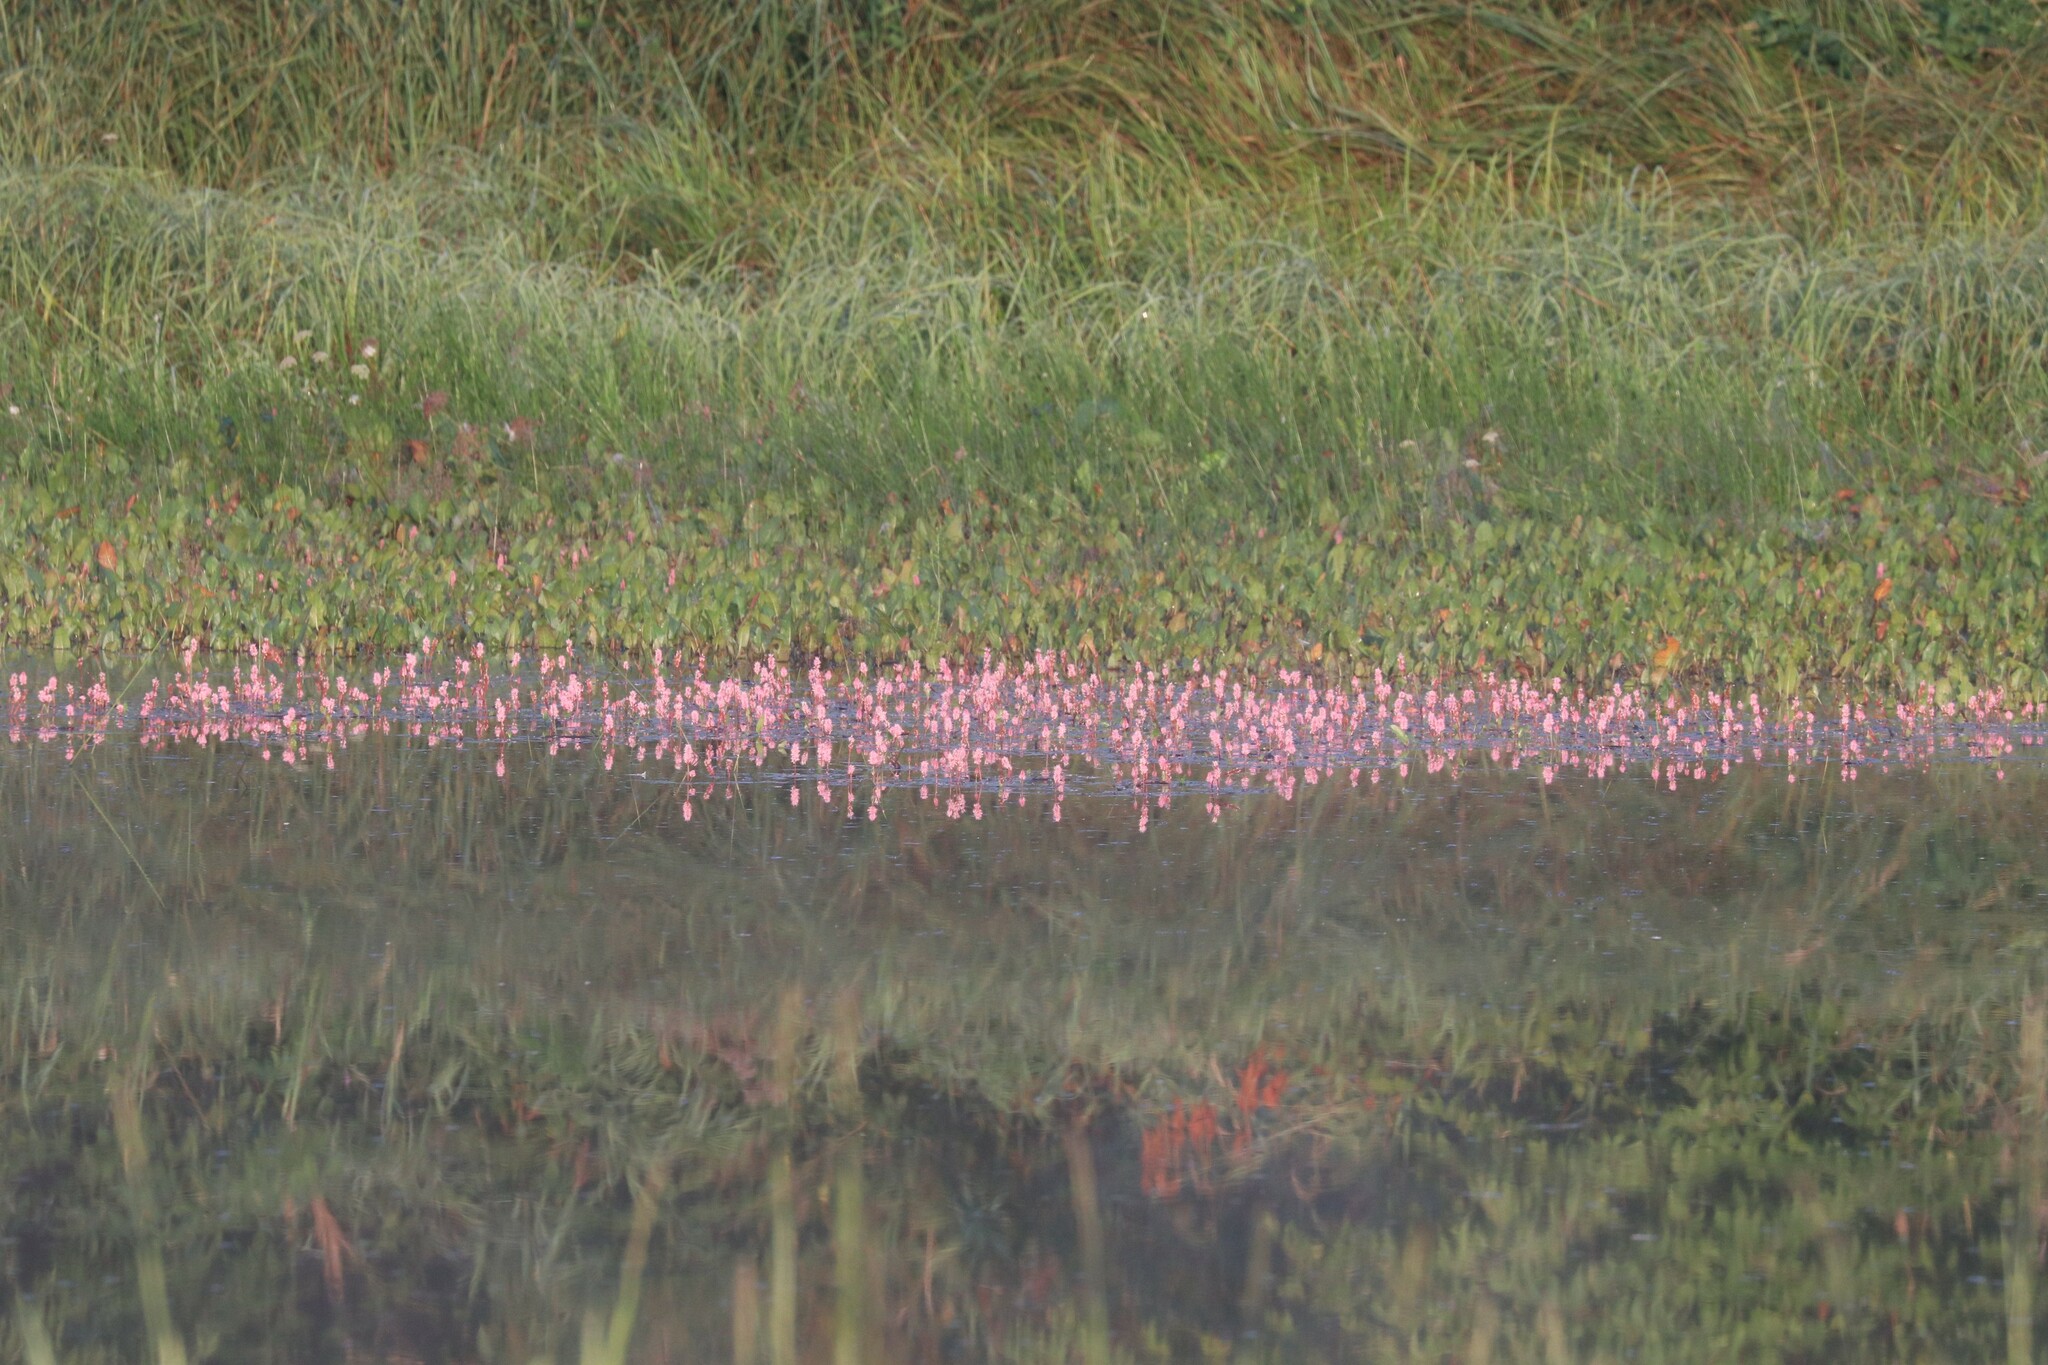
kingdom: Plantae
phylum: Tracheophyta
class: Magnoliopsida
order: Caryophyllales
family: Polygonaceae
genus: Persicaria
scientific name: Persicaria amphibia
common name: Amphibious bistort
